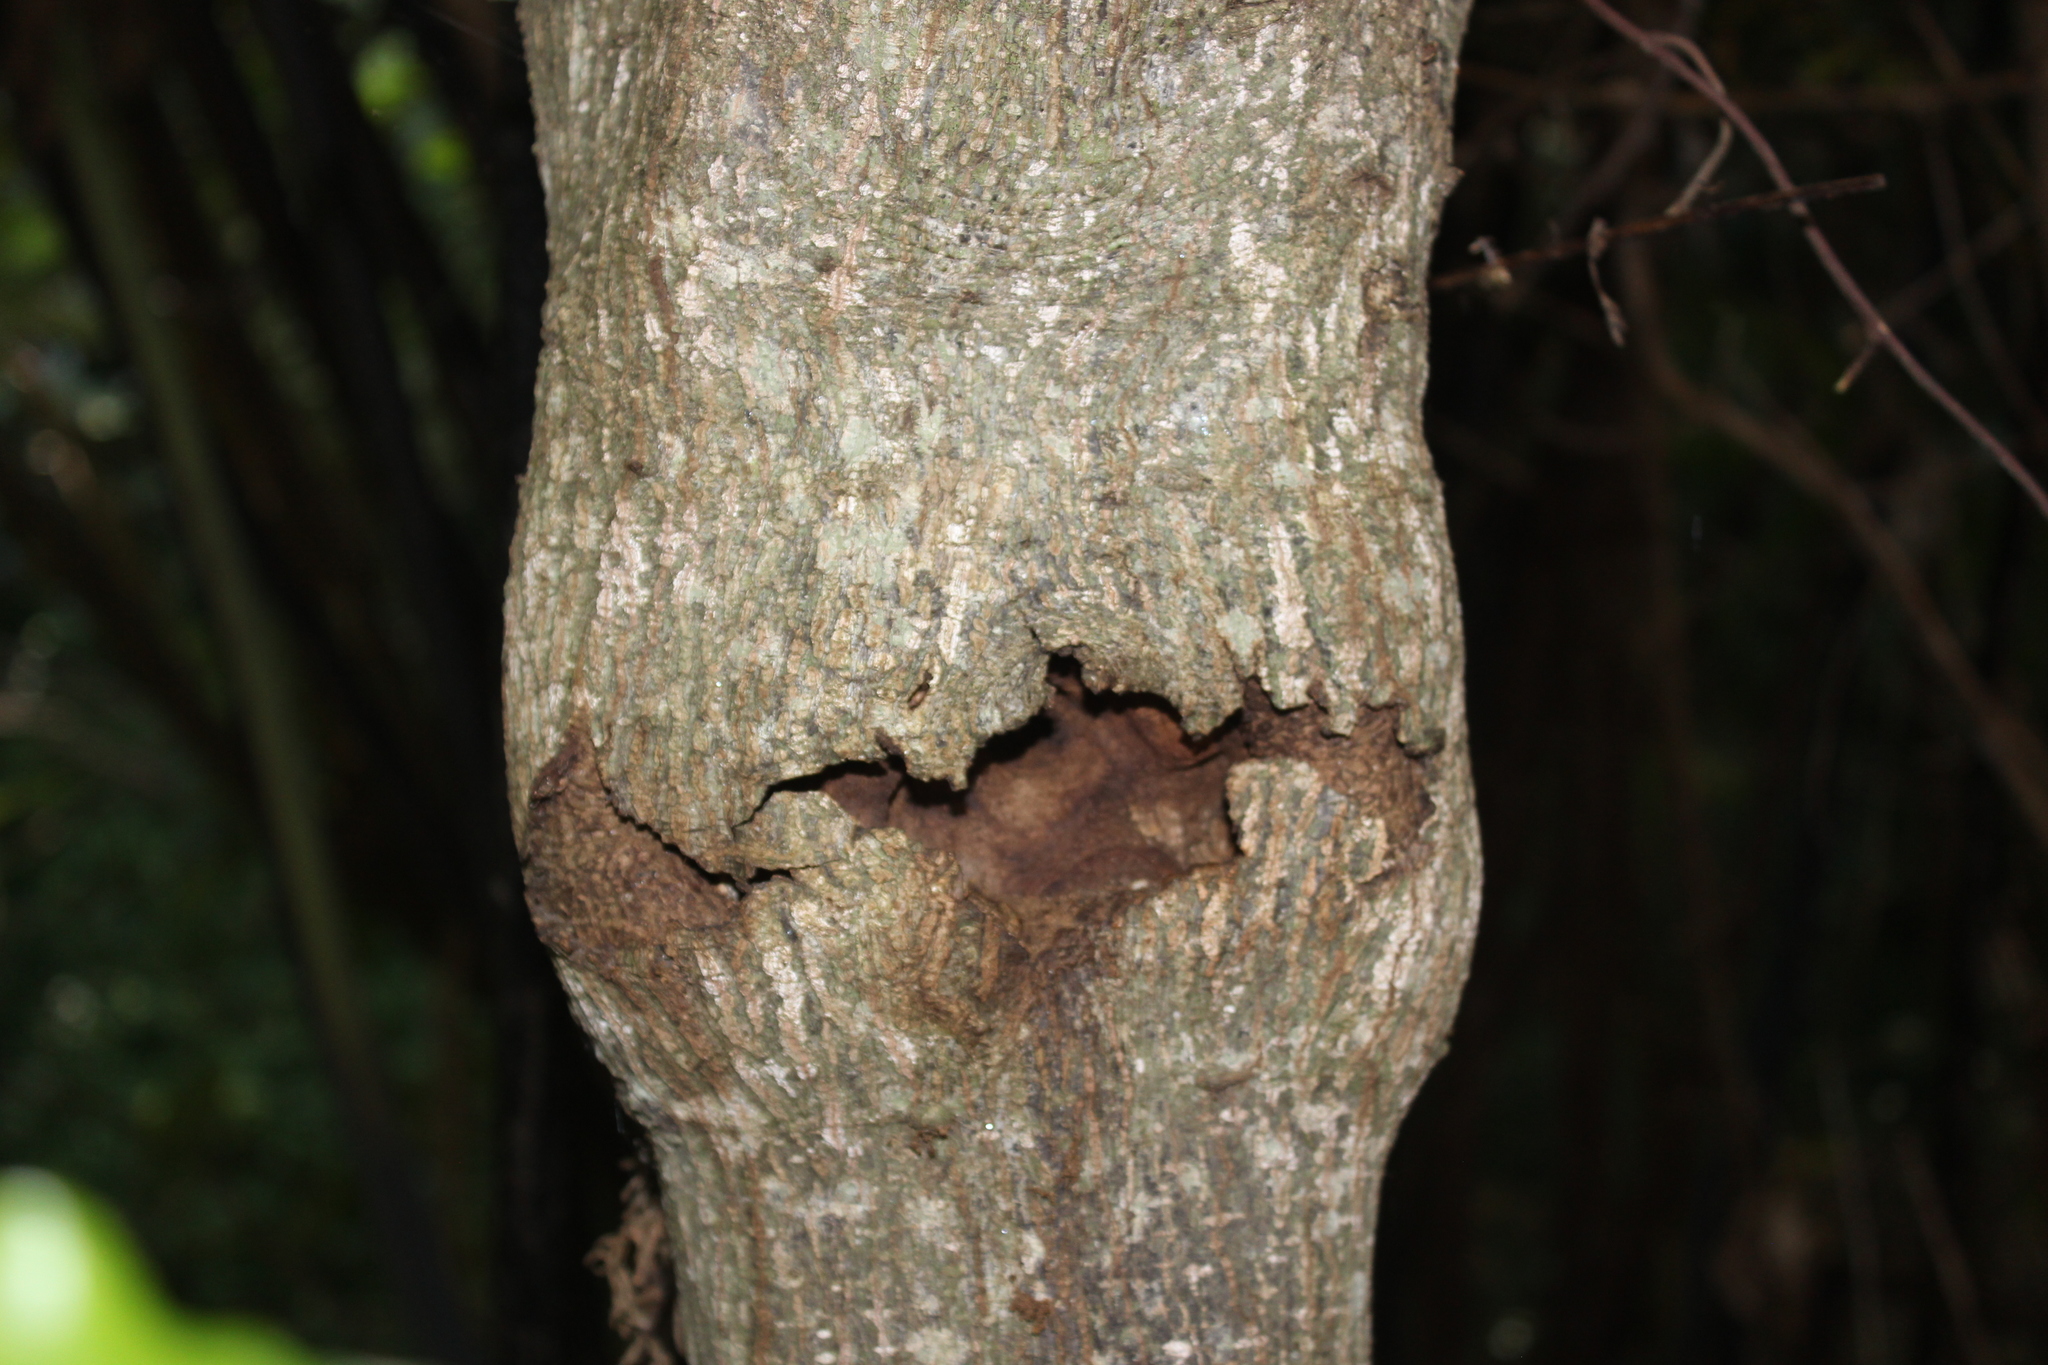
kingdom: Animalia
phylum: Arthropoda
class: Insecta
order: Lepidoptera
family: Hepialidae
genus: Aenetus
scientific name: Aenetus virescens
